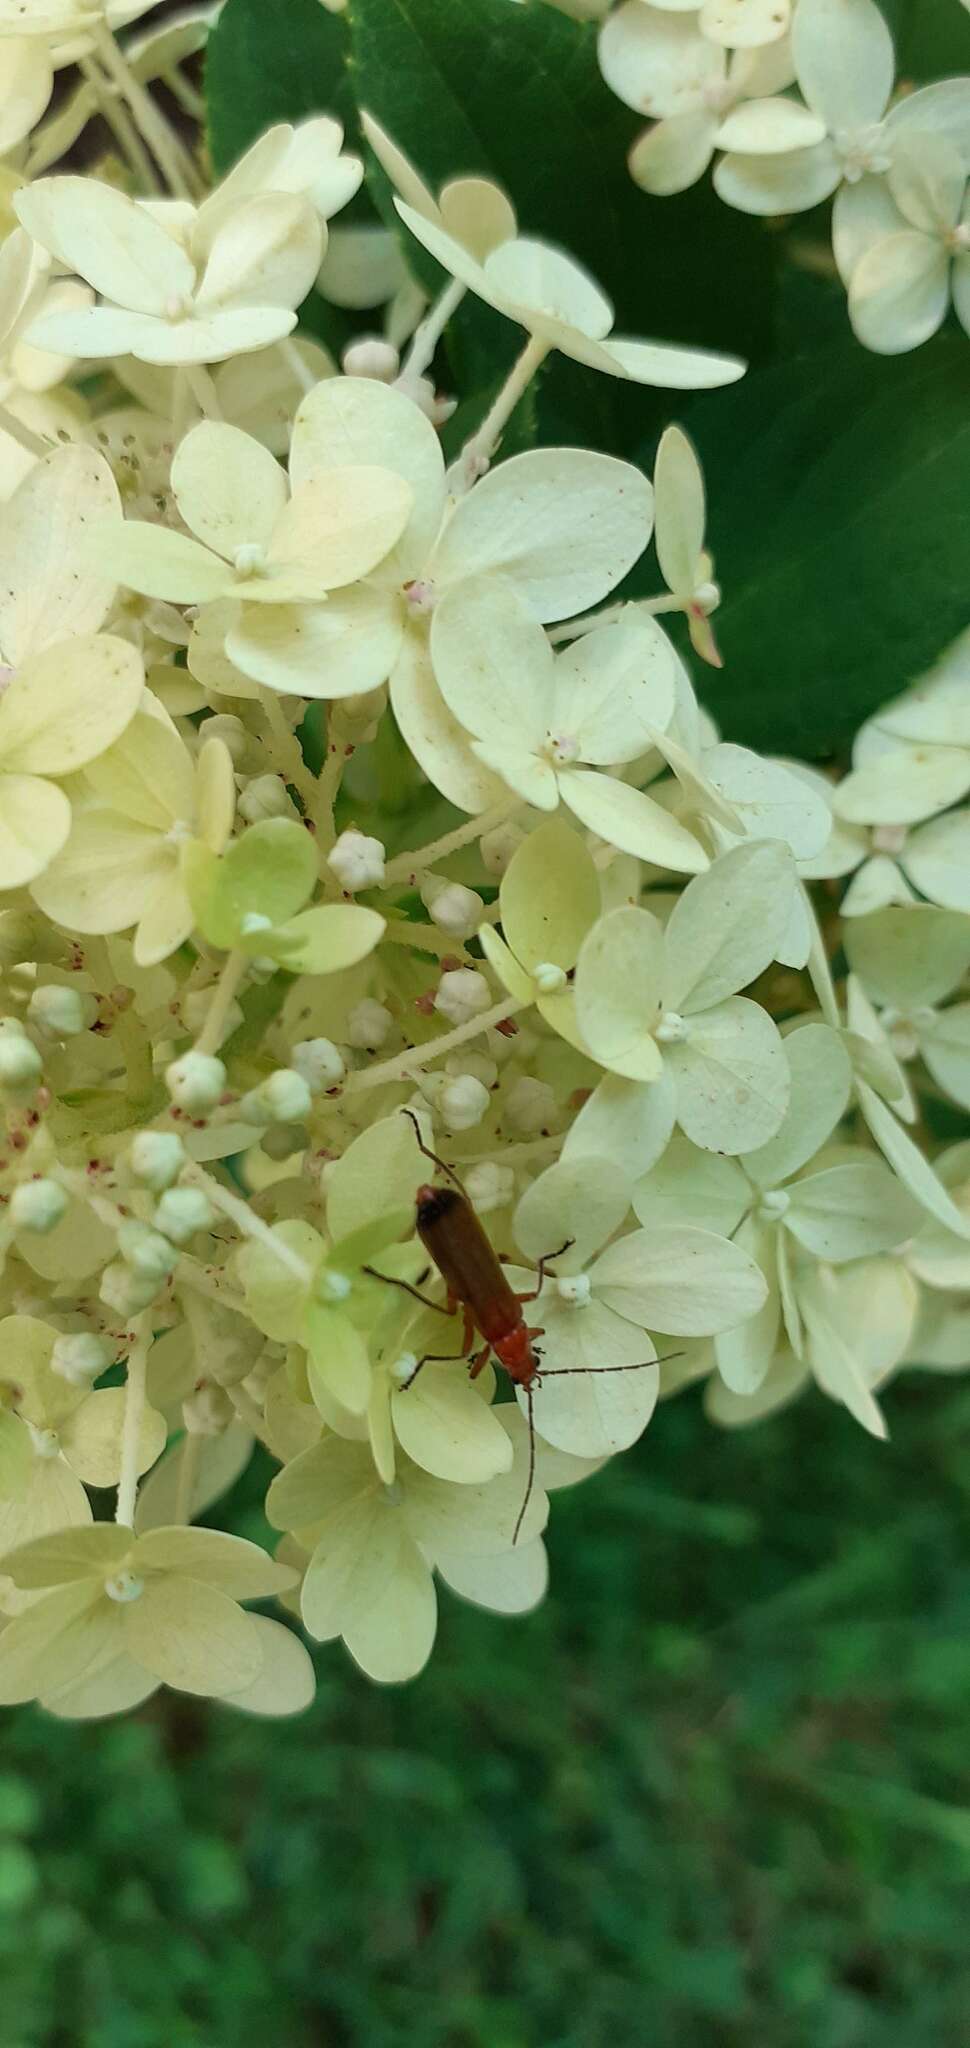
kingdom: Animalia
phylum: Arthropoda
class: Insecta
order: Coleoptera
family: Cantharidae
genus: Rhagonycha
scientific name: Rhagonycha fulva
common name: Common red soldier beetle
